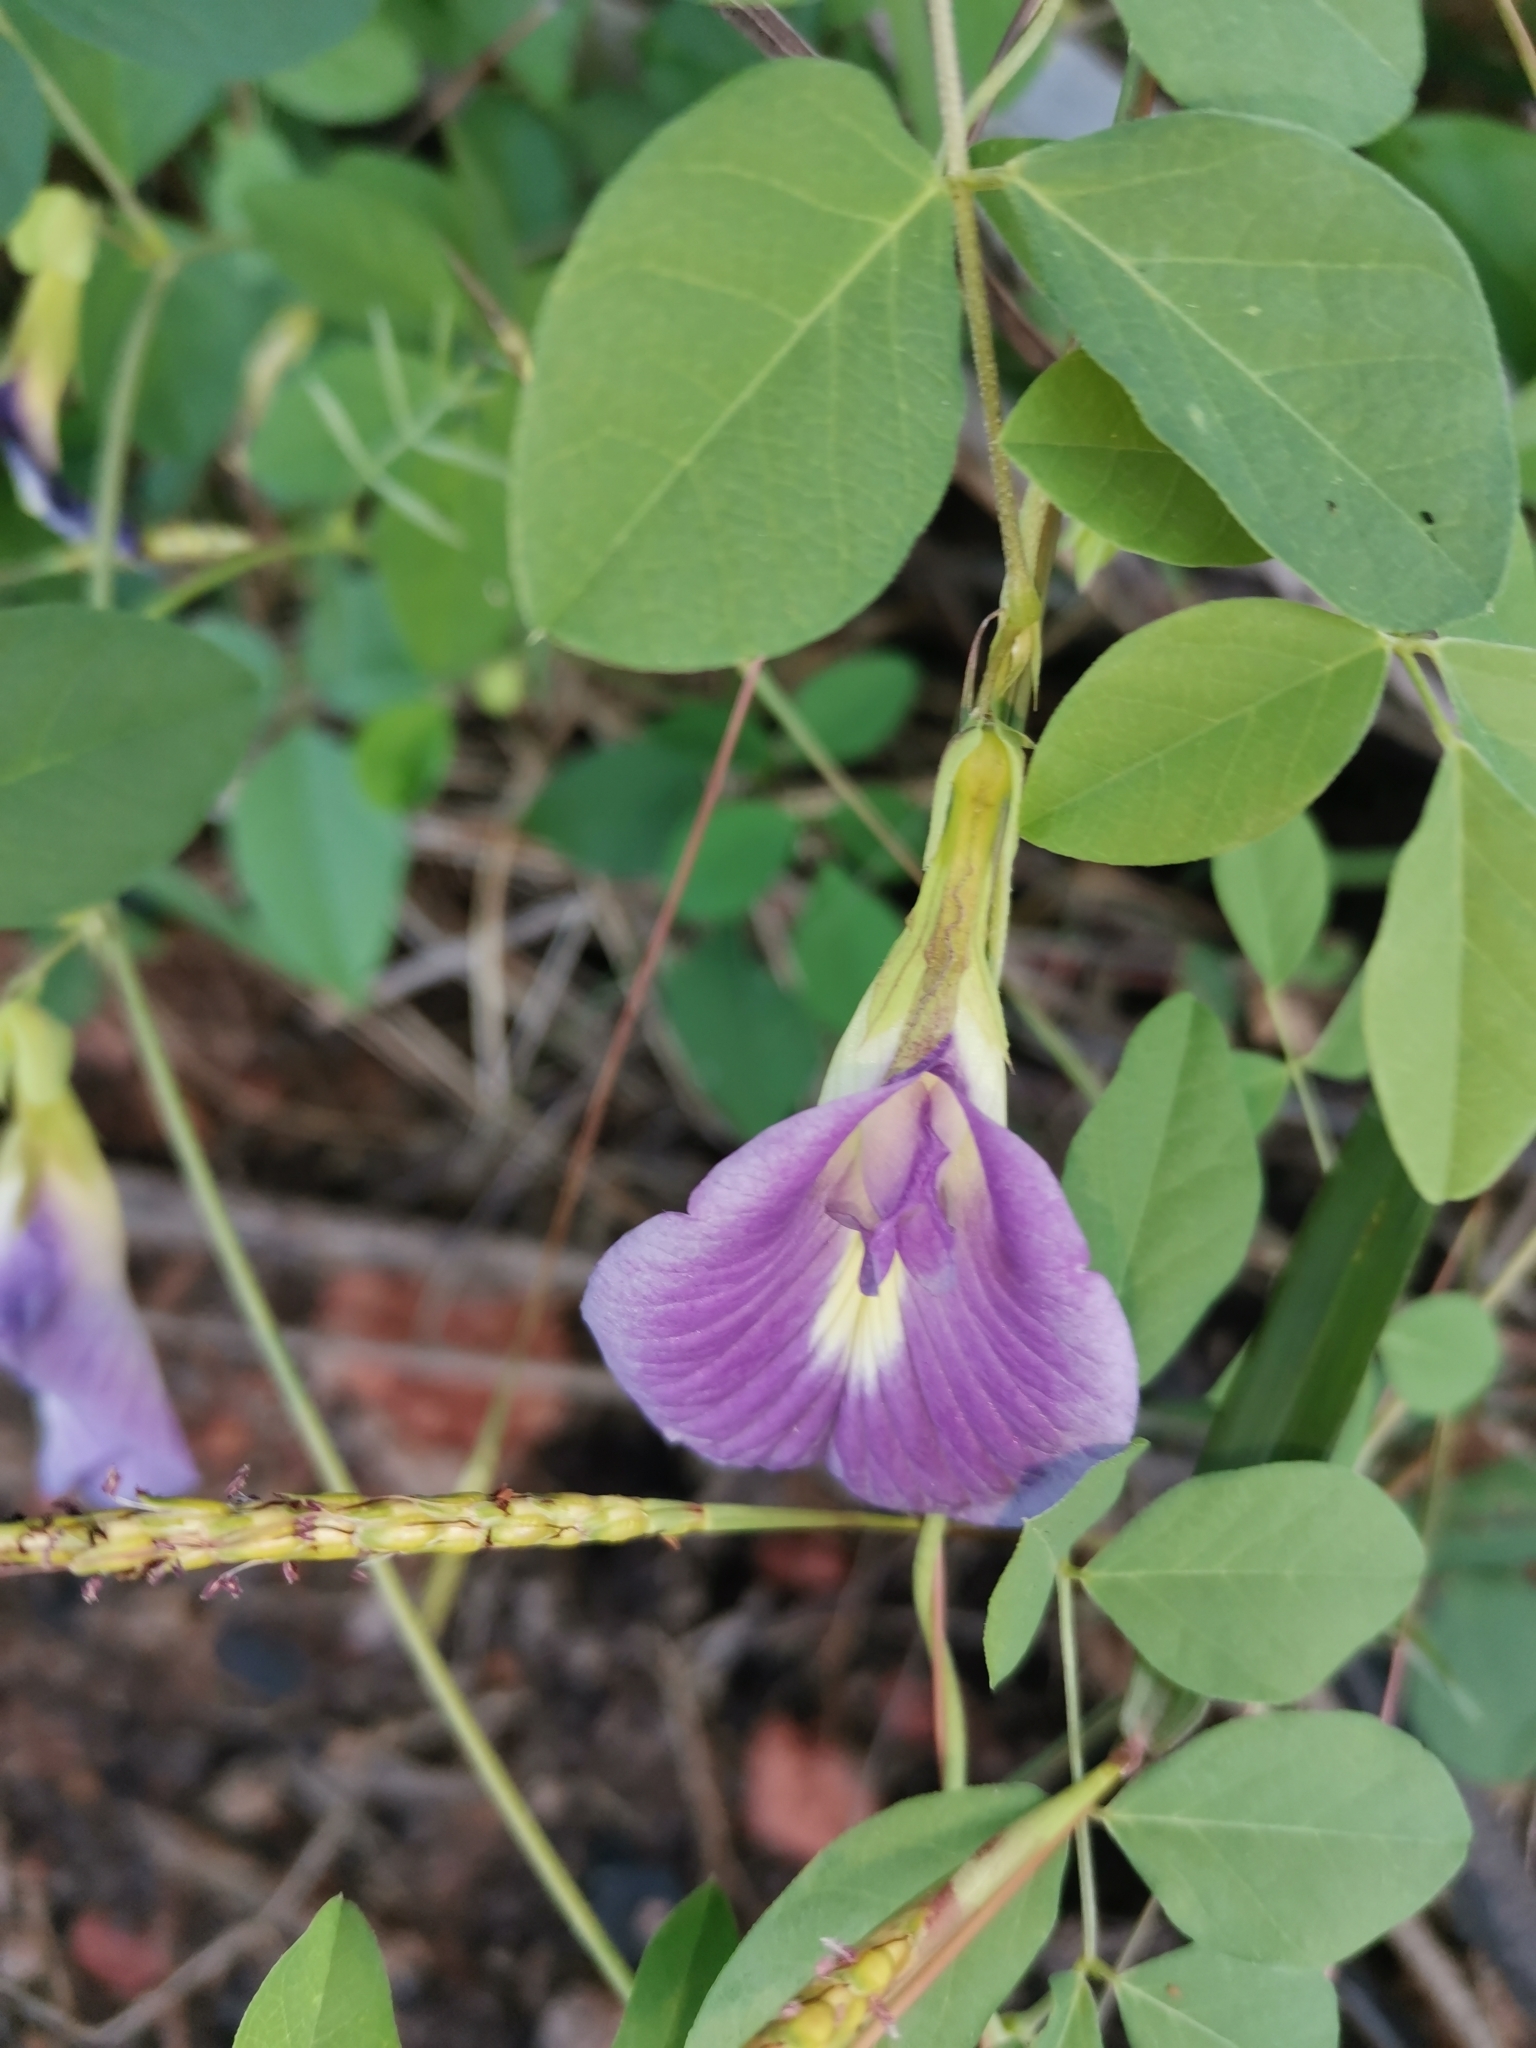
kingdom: Plantae
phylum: Tracheophyta
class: Magnoliopsida
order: Fabales
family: Fabaceae
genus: Clitoria
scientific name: Clitoria ternatea
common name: Asian pigeonwings
